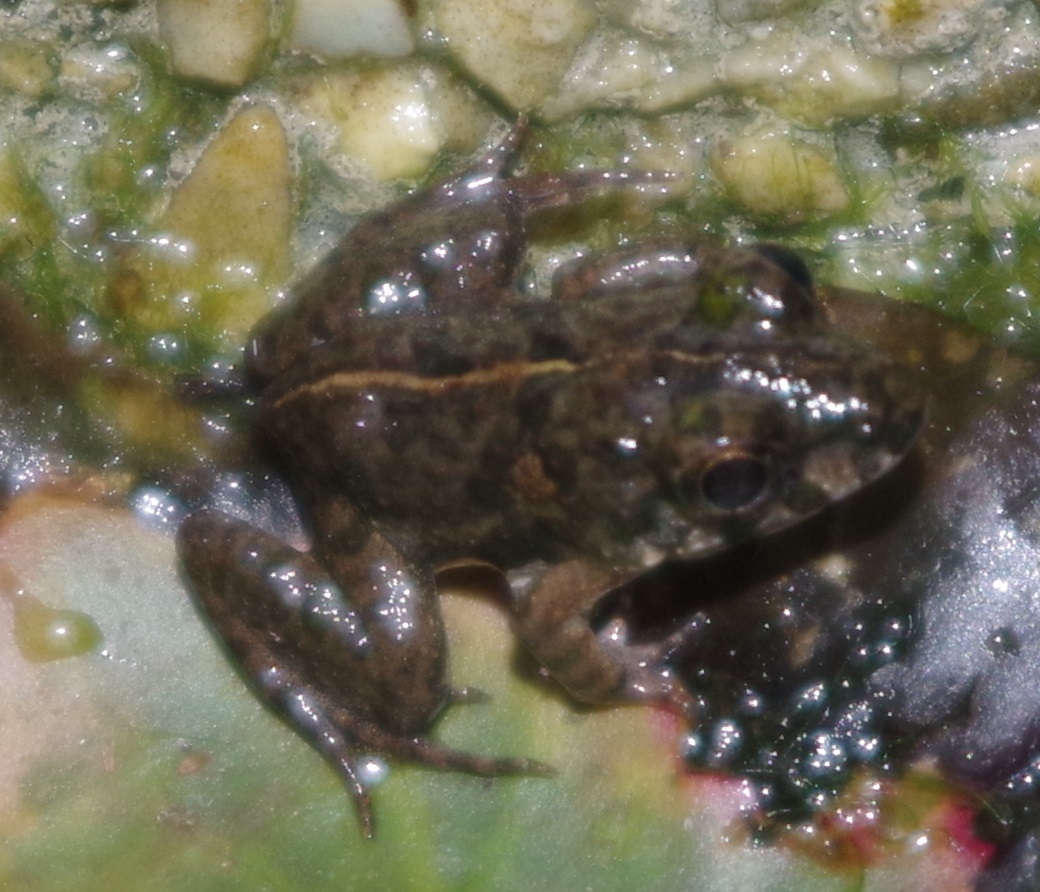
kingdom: Animalia
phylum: Chordata
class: Amphibia
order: Anura
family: Dicroglossidae
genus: Fejervarya
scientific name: Fejervarya limnocharis
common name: Asian grass frog/common pond frog/field frog/grass frog/indian rice frog
